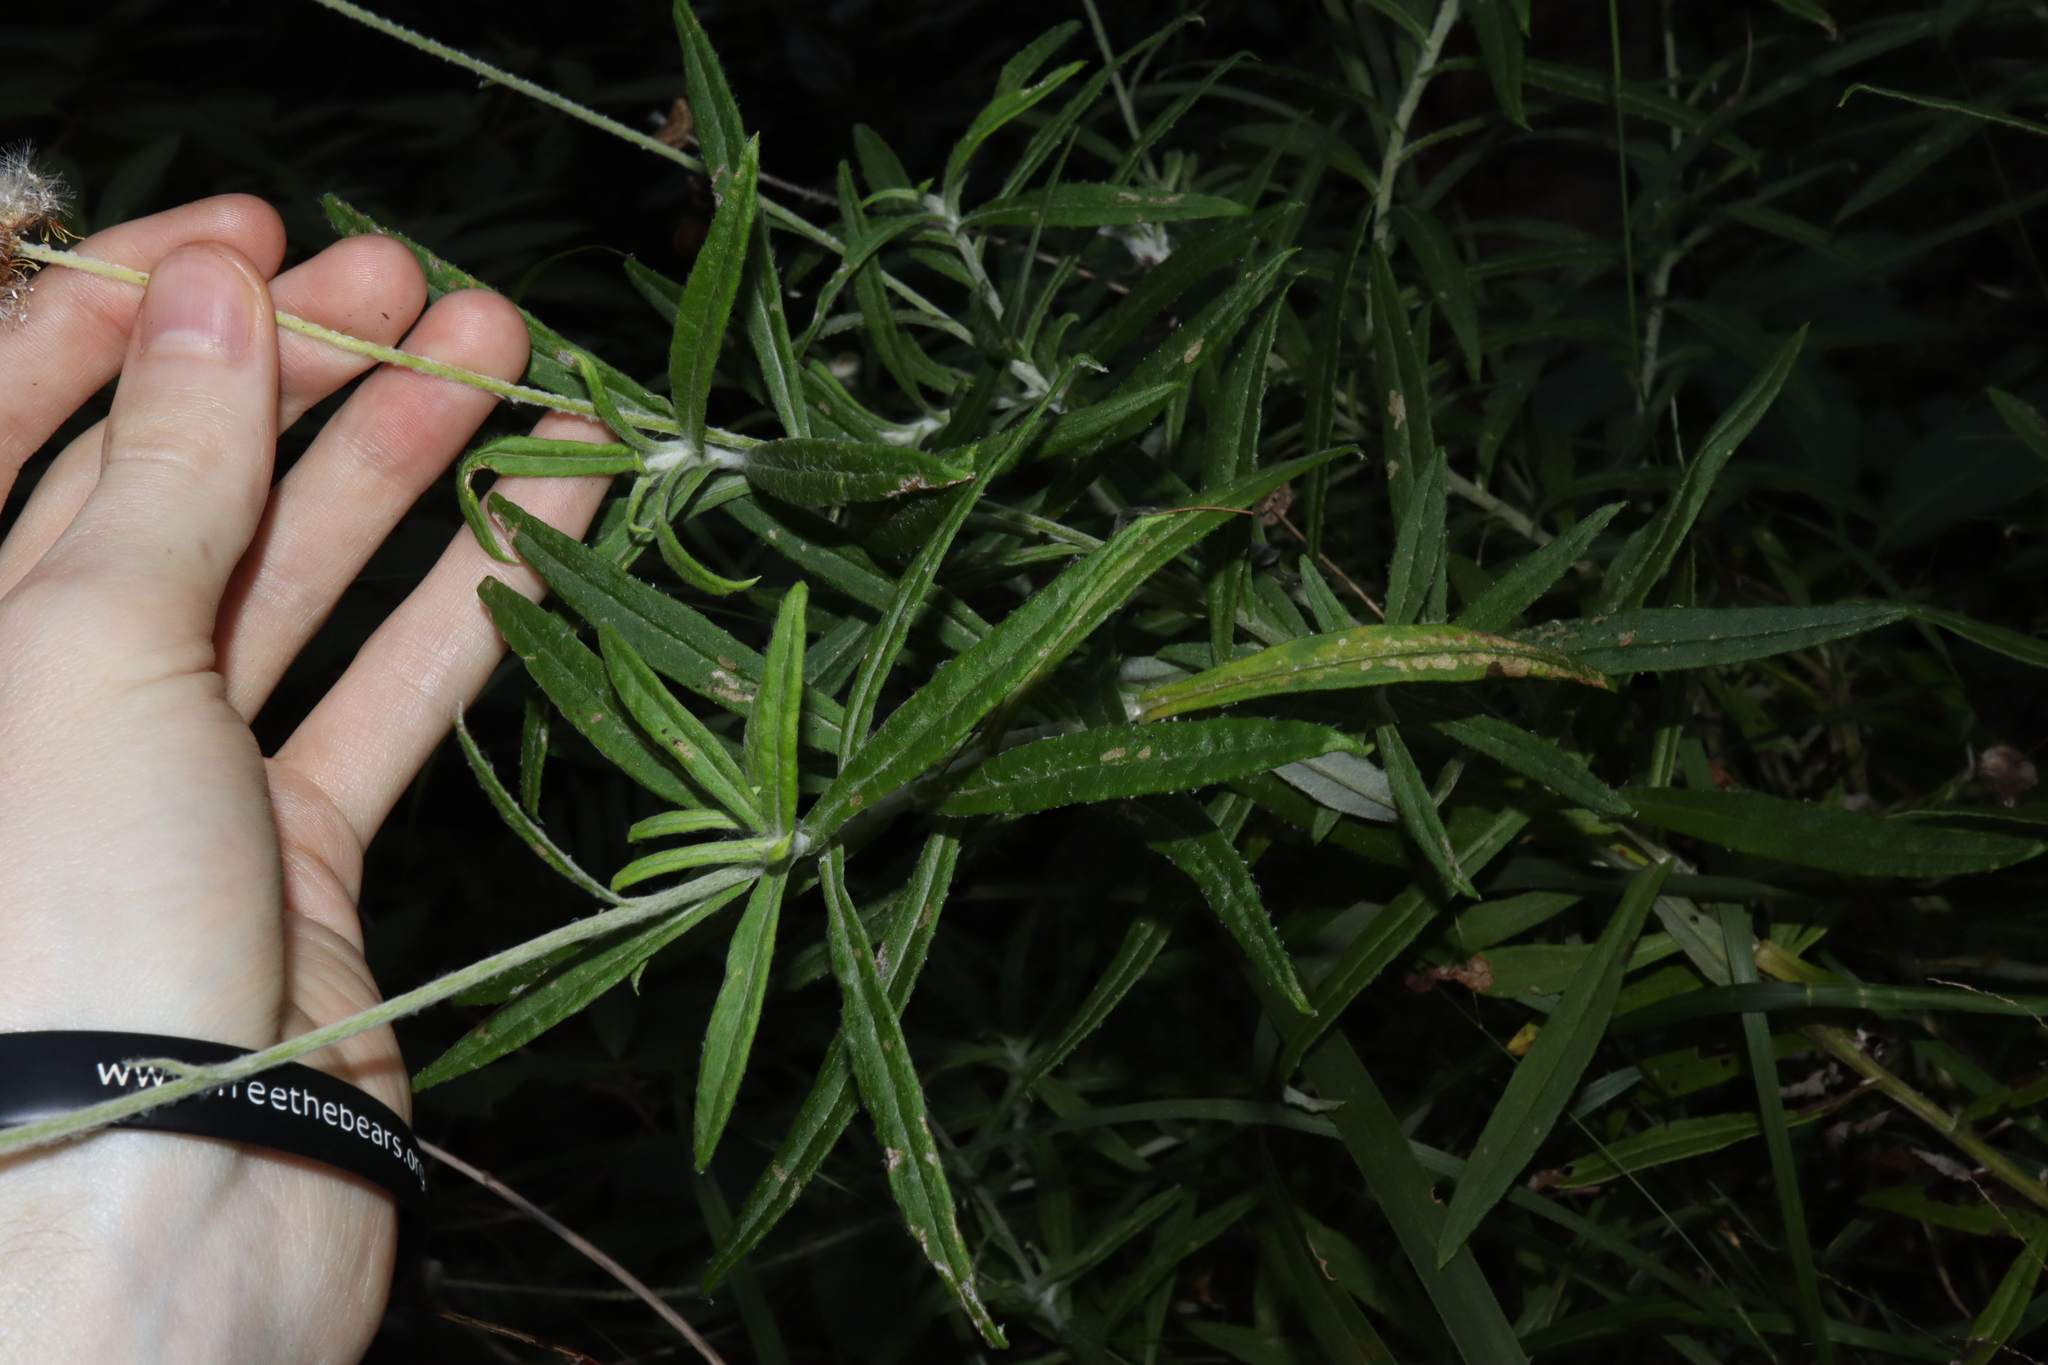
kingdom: Plantae
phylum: Tracheophyta
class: Magnoliopsida
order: Asterales
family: Asteraceae
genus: Coronidium
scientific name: Coronidium rupicola
